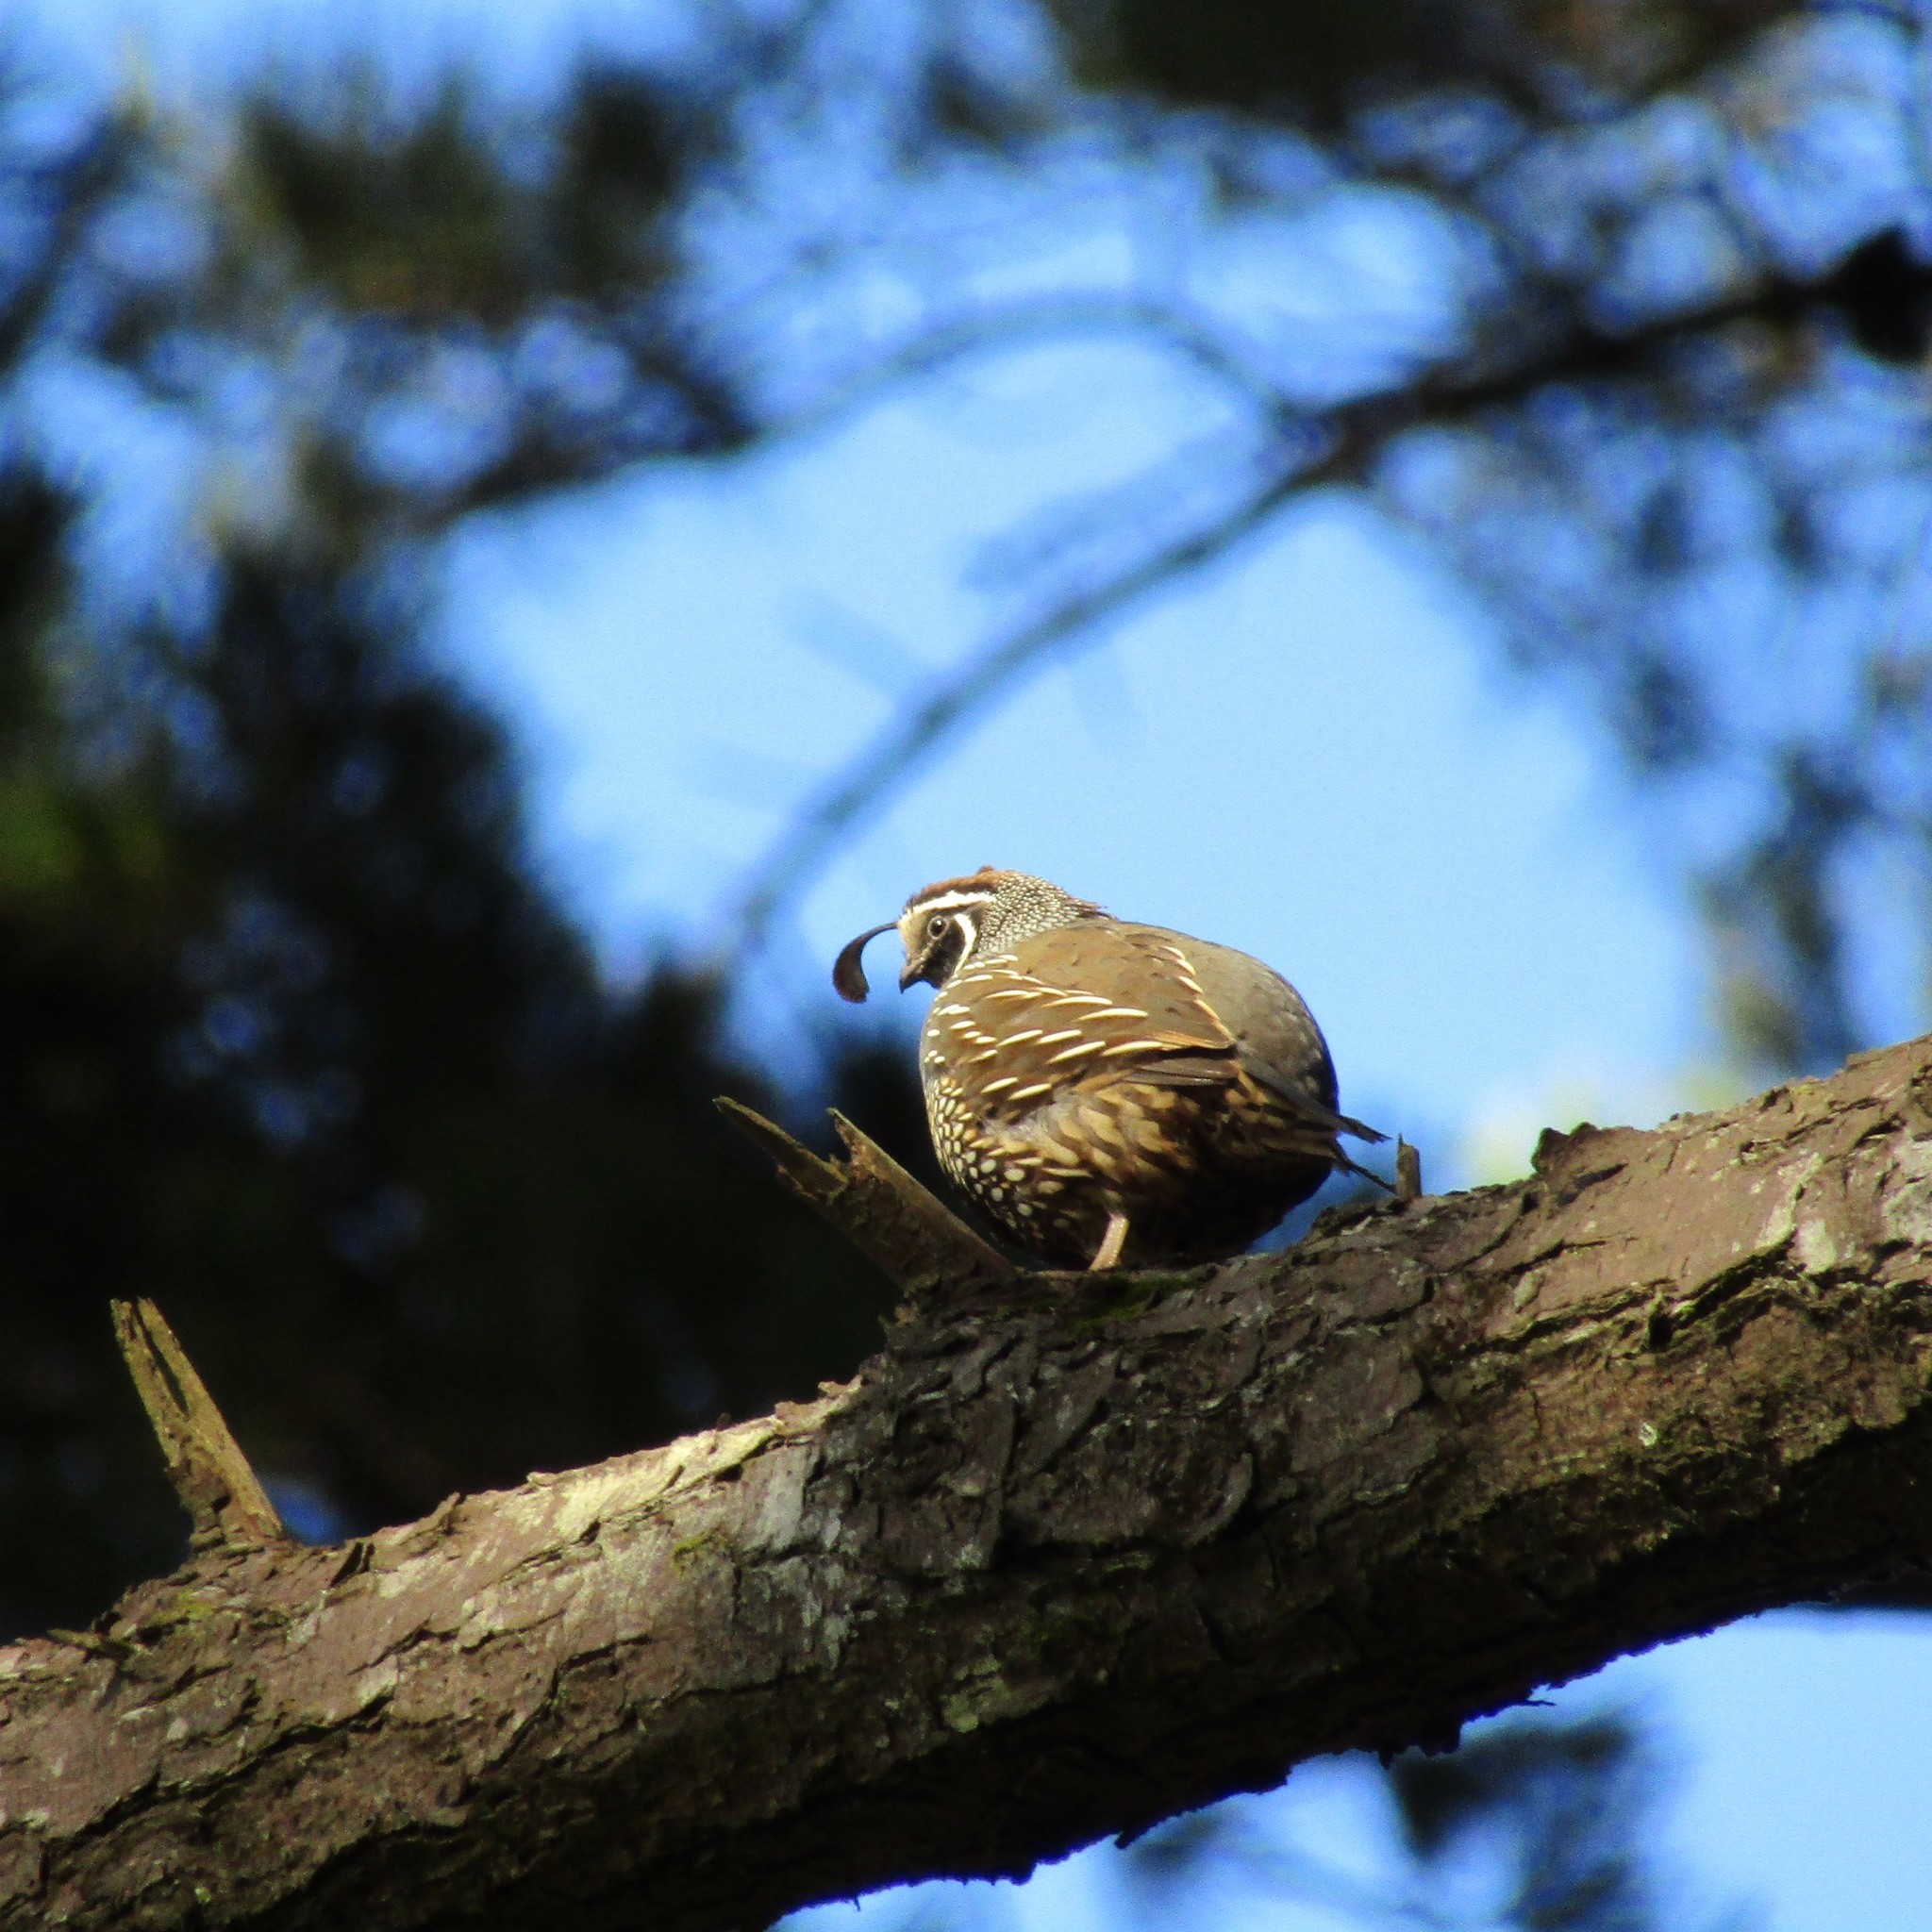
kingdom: Animalia
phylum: Chordata
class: Aves
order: Galliformes
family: Odontophoridae
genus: Callipepla
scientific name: Callipepla californica
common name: California quail
